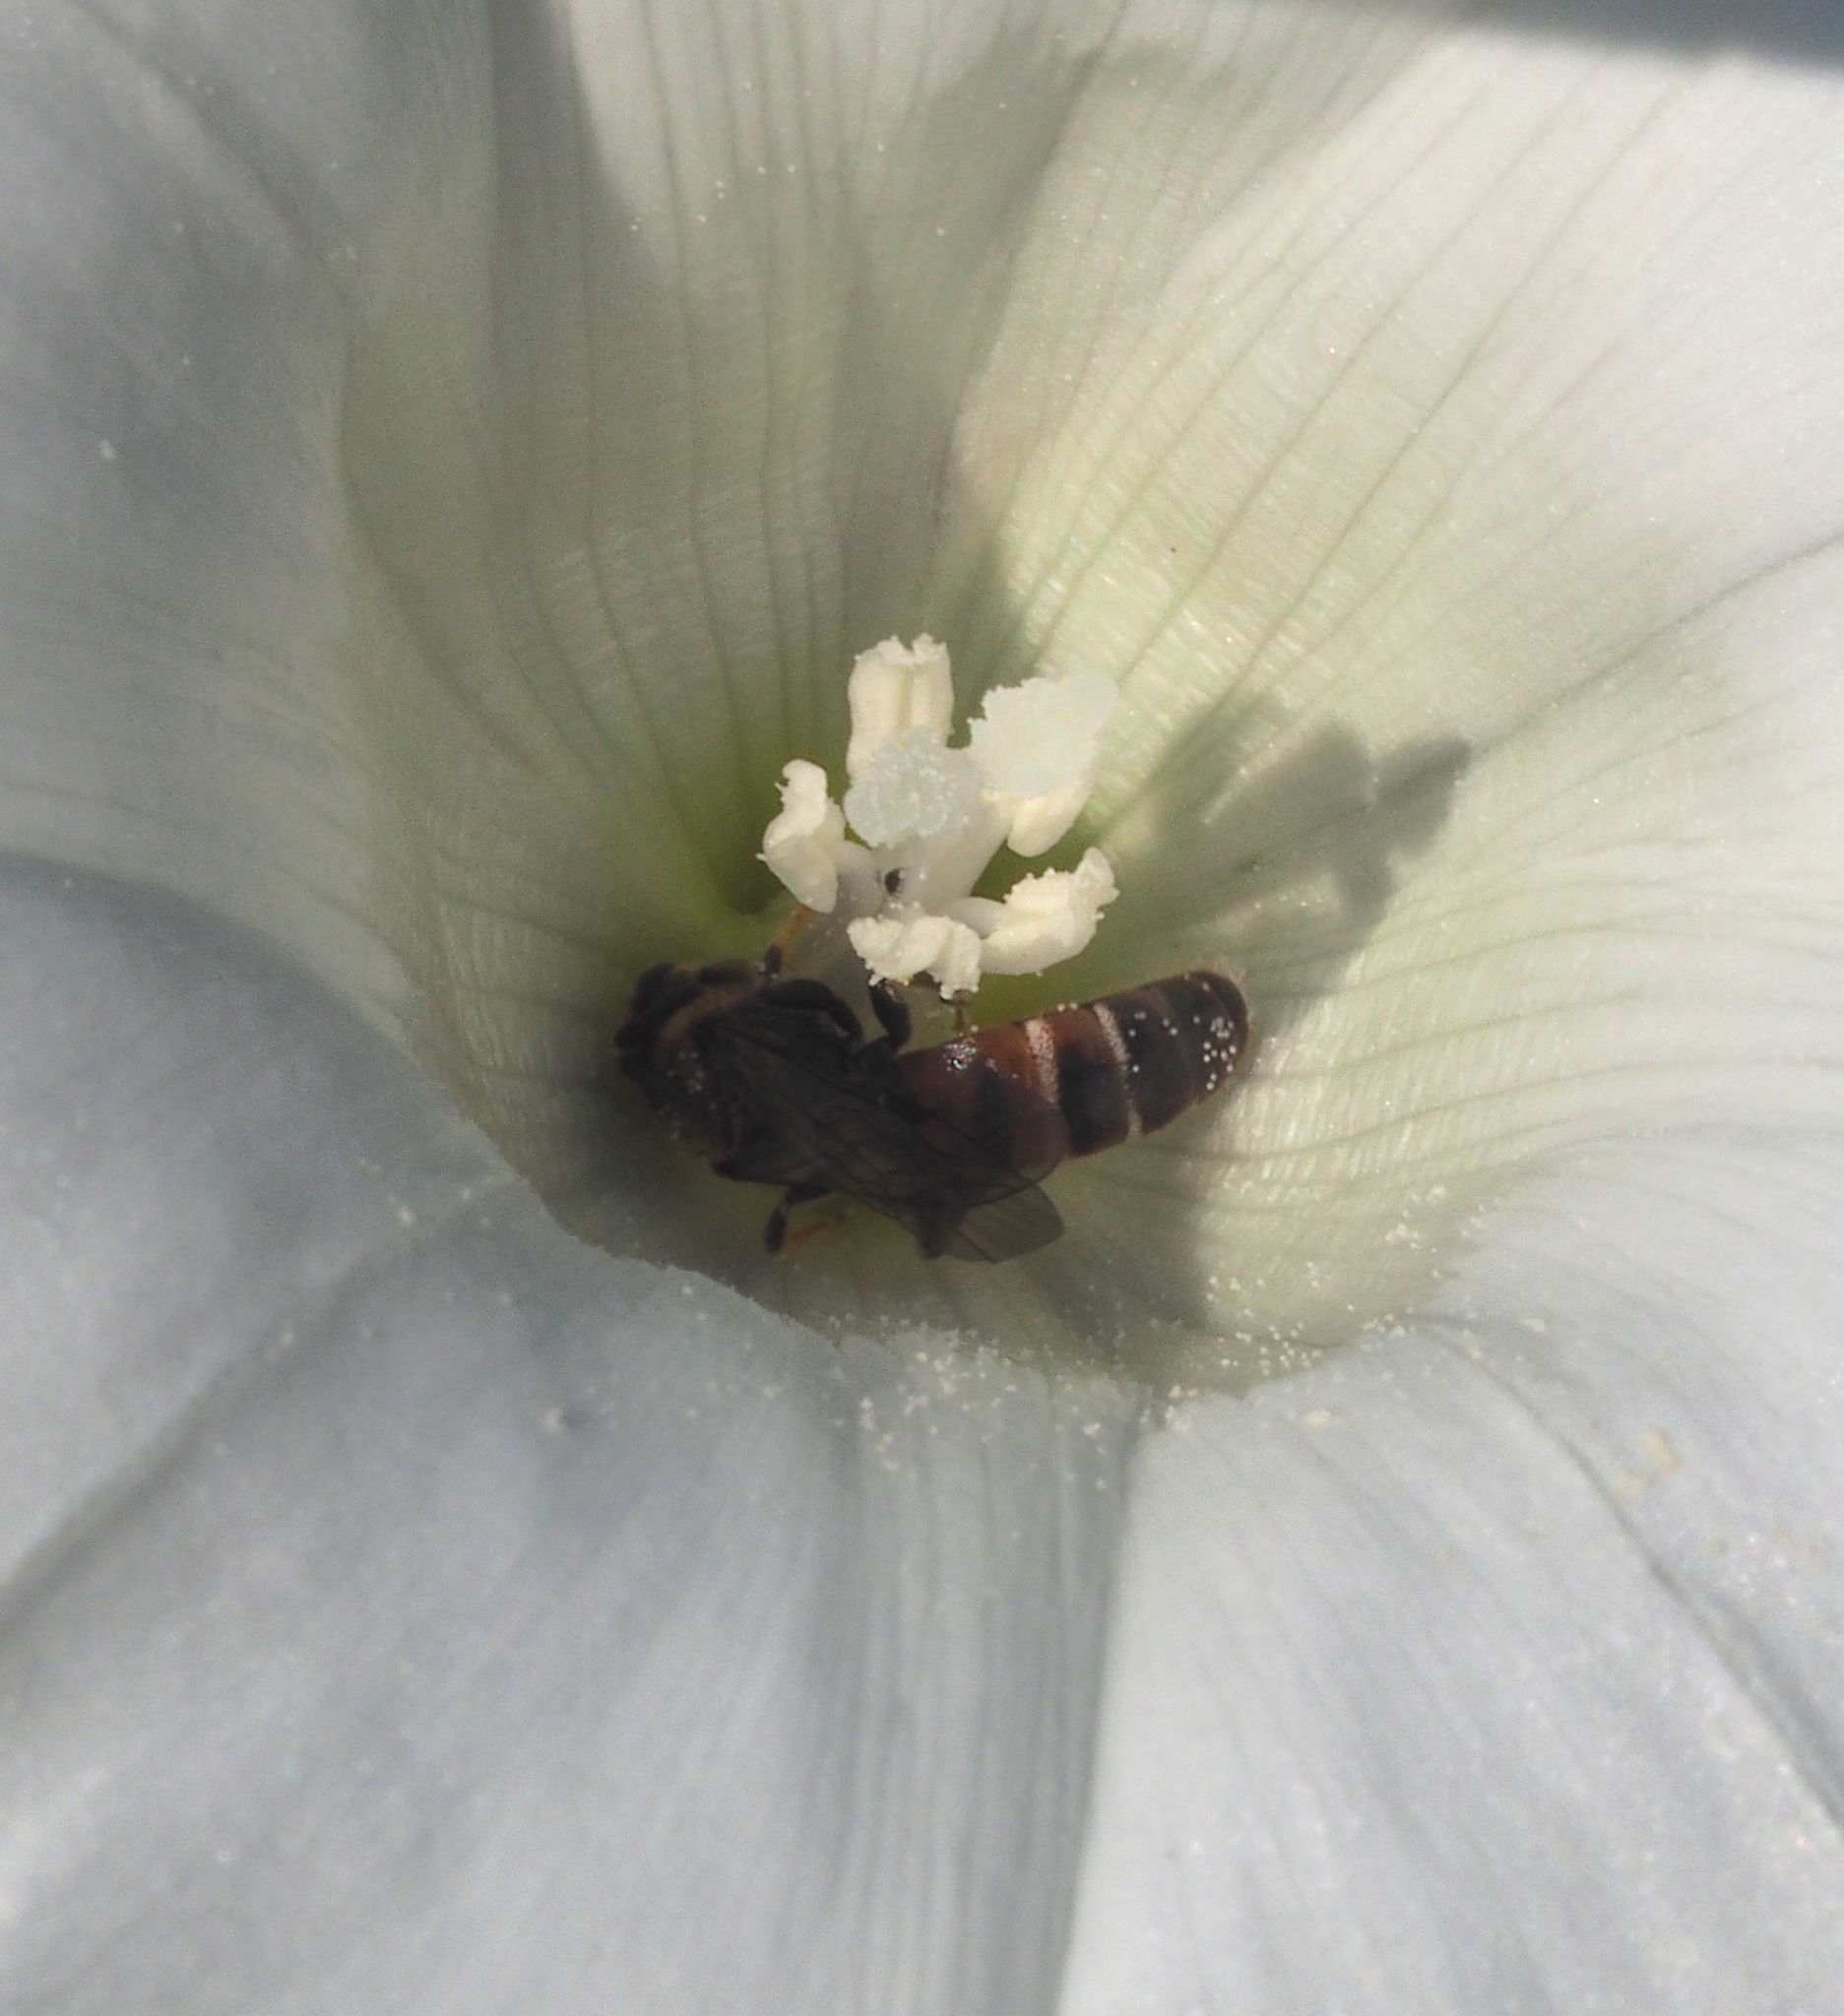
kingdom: Animalia
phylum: Arthropoda
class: Insecta
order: Hymenoptera
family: Halictidae
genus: Lasioglossum
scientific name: Lasioglossum albipes
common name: Bloomed furrow bee
